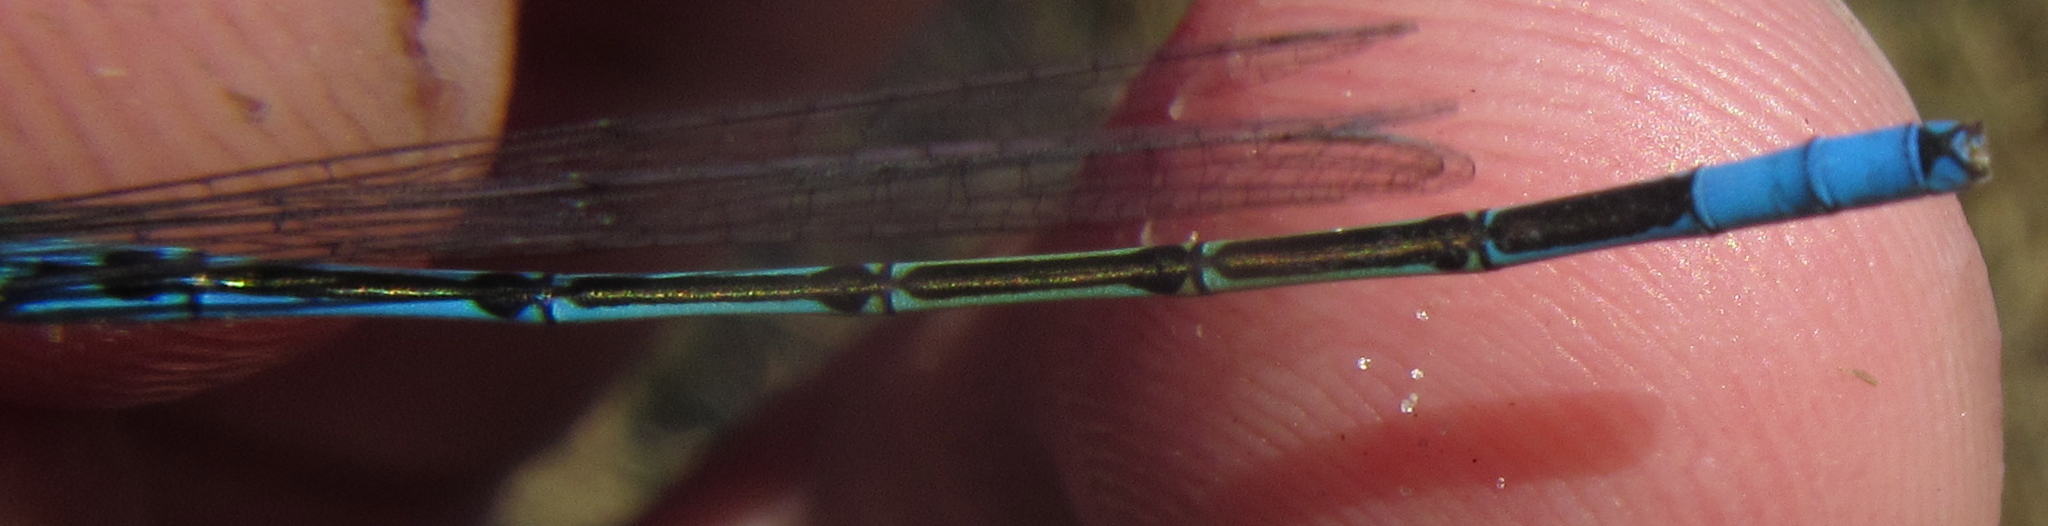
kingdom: Animalia
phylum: Arthropoda
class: Insecta
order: Odonata
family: Coenagrionidae
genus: Pseudagrion
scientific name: Pseudagrion assegaii
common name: Assegaai sprite
